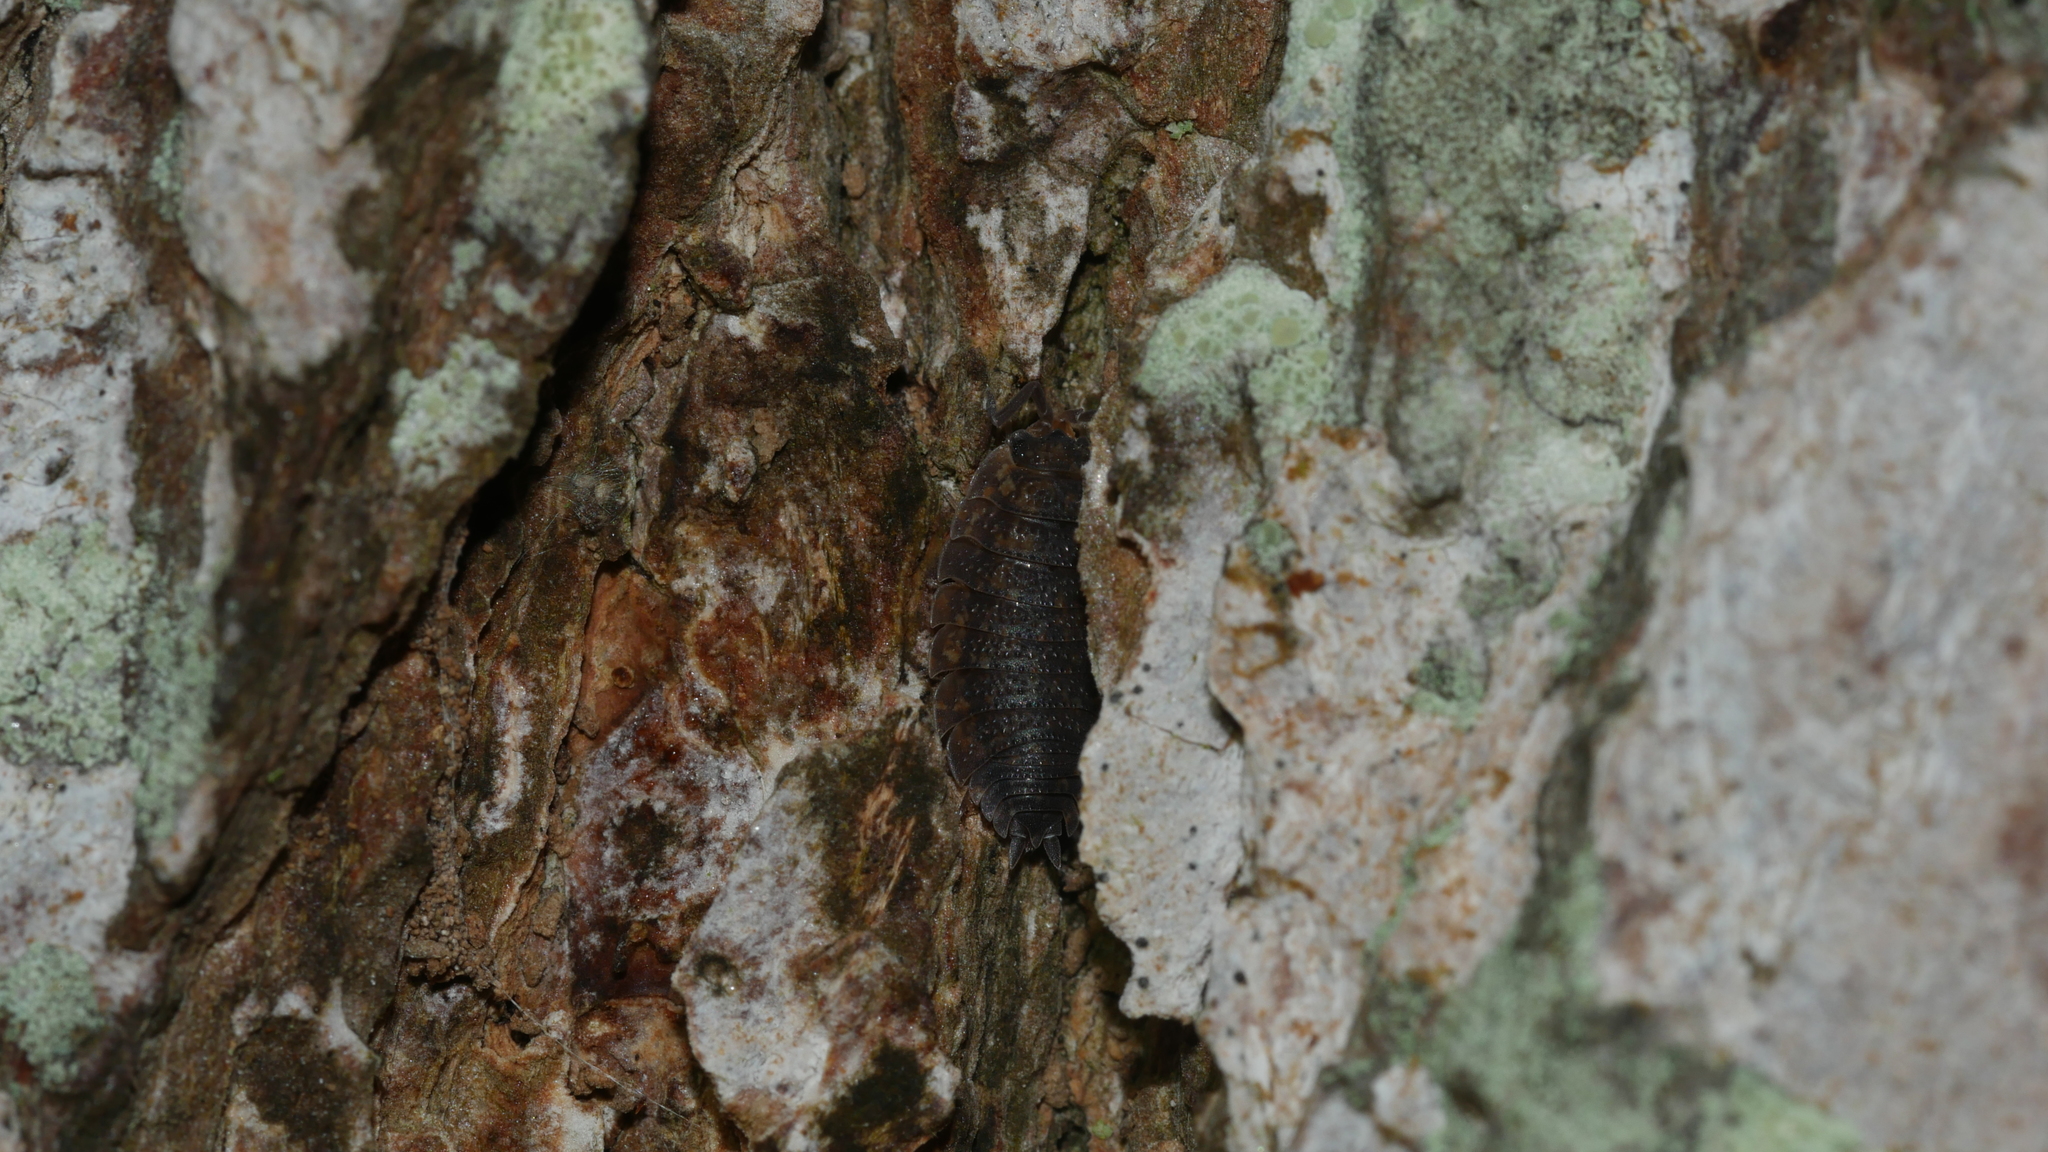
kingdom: Animalia
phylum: Arthropoda
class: Malacostraca
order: Isopoda
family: Porcellionidae
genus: Porcellio
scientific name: Porcellio scaber
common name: Common rough woodlouse
